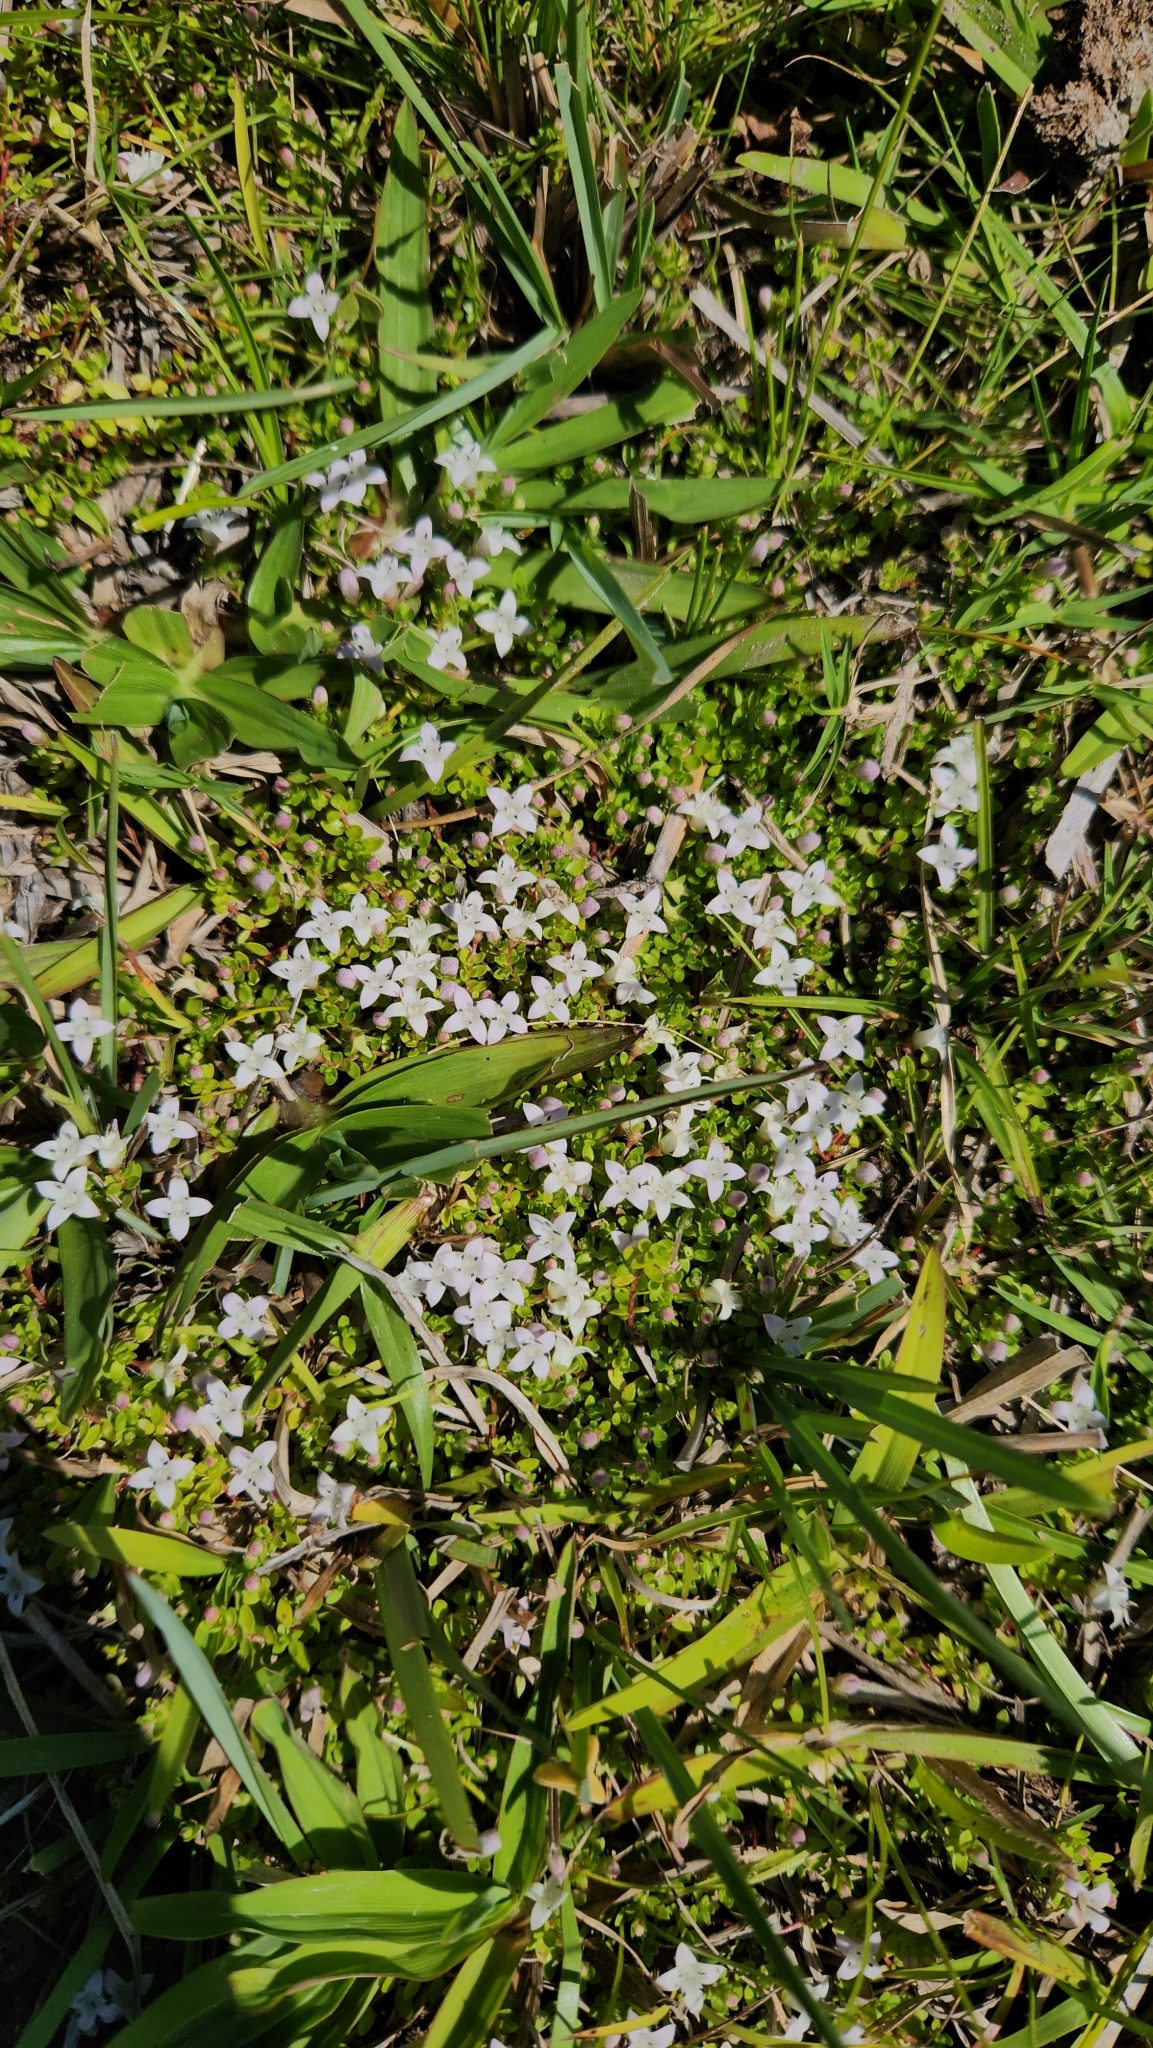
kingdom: Plantae
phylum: Tracheophyta
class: Magnoliopsida
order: Gentianales
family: Rubiaceae
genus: Oldenlandia
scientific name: Oldenlandia salzmannii
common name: Salzmann's mille graines
